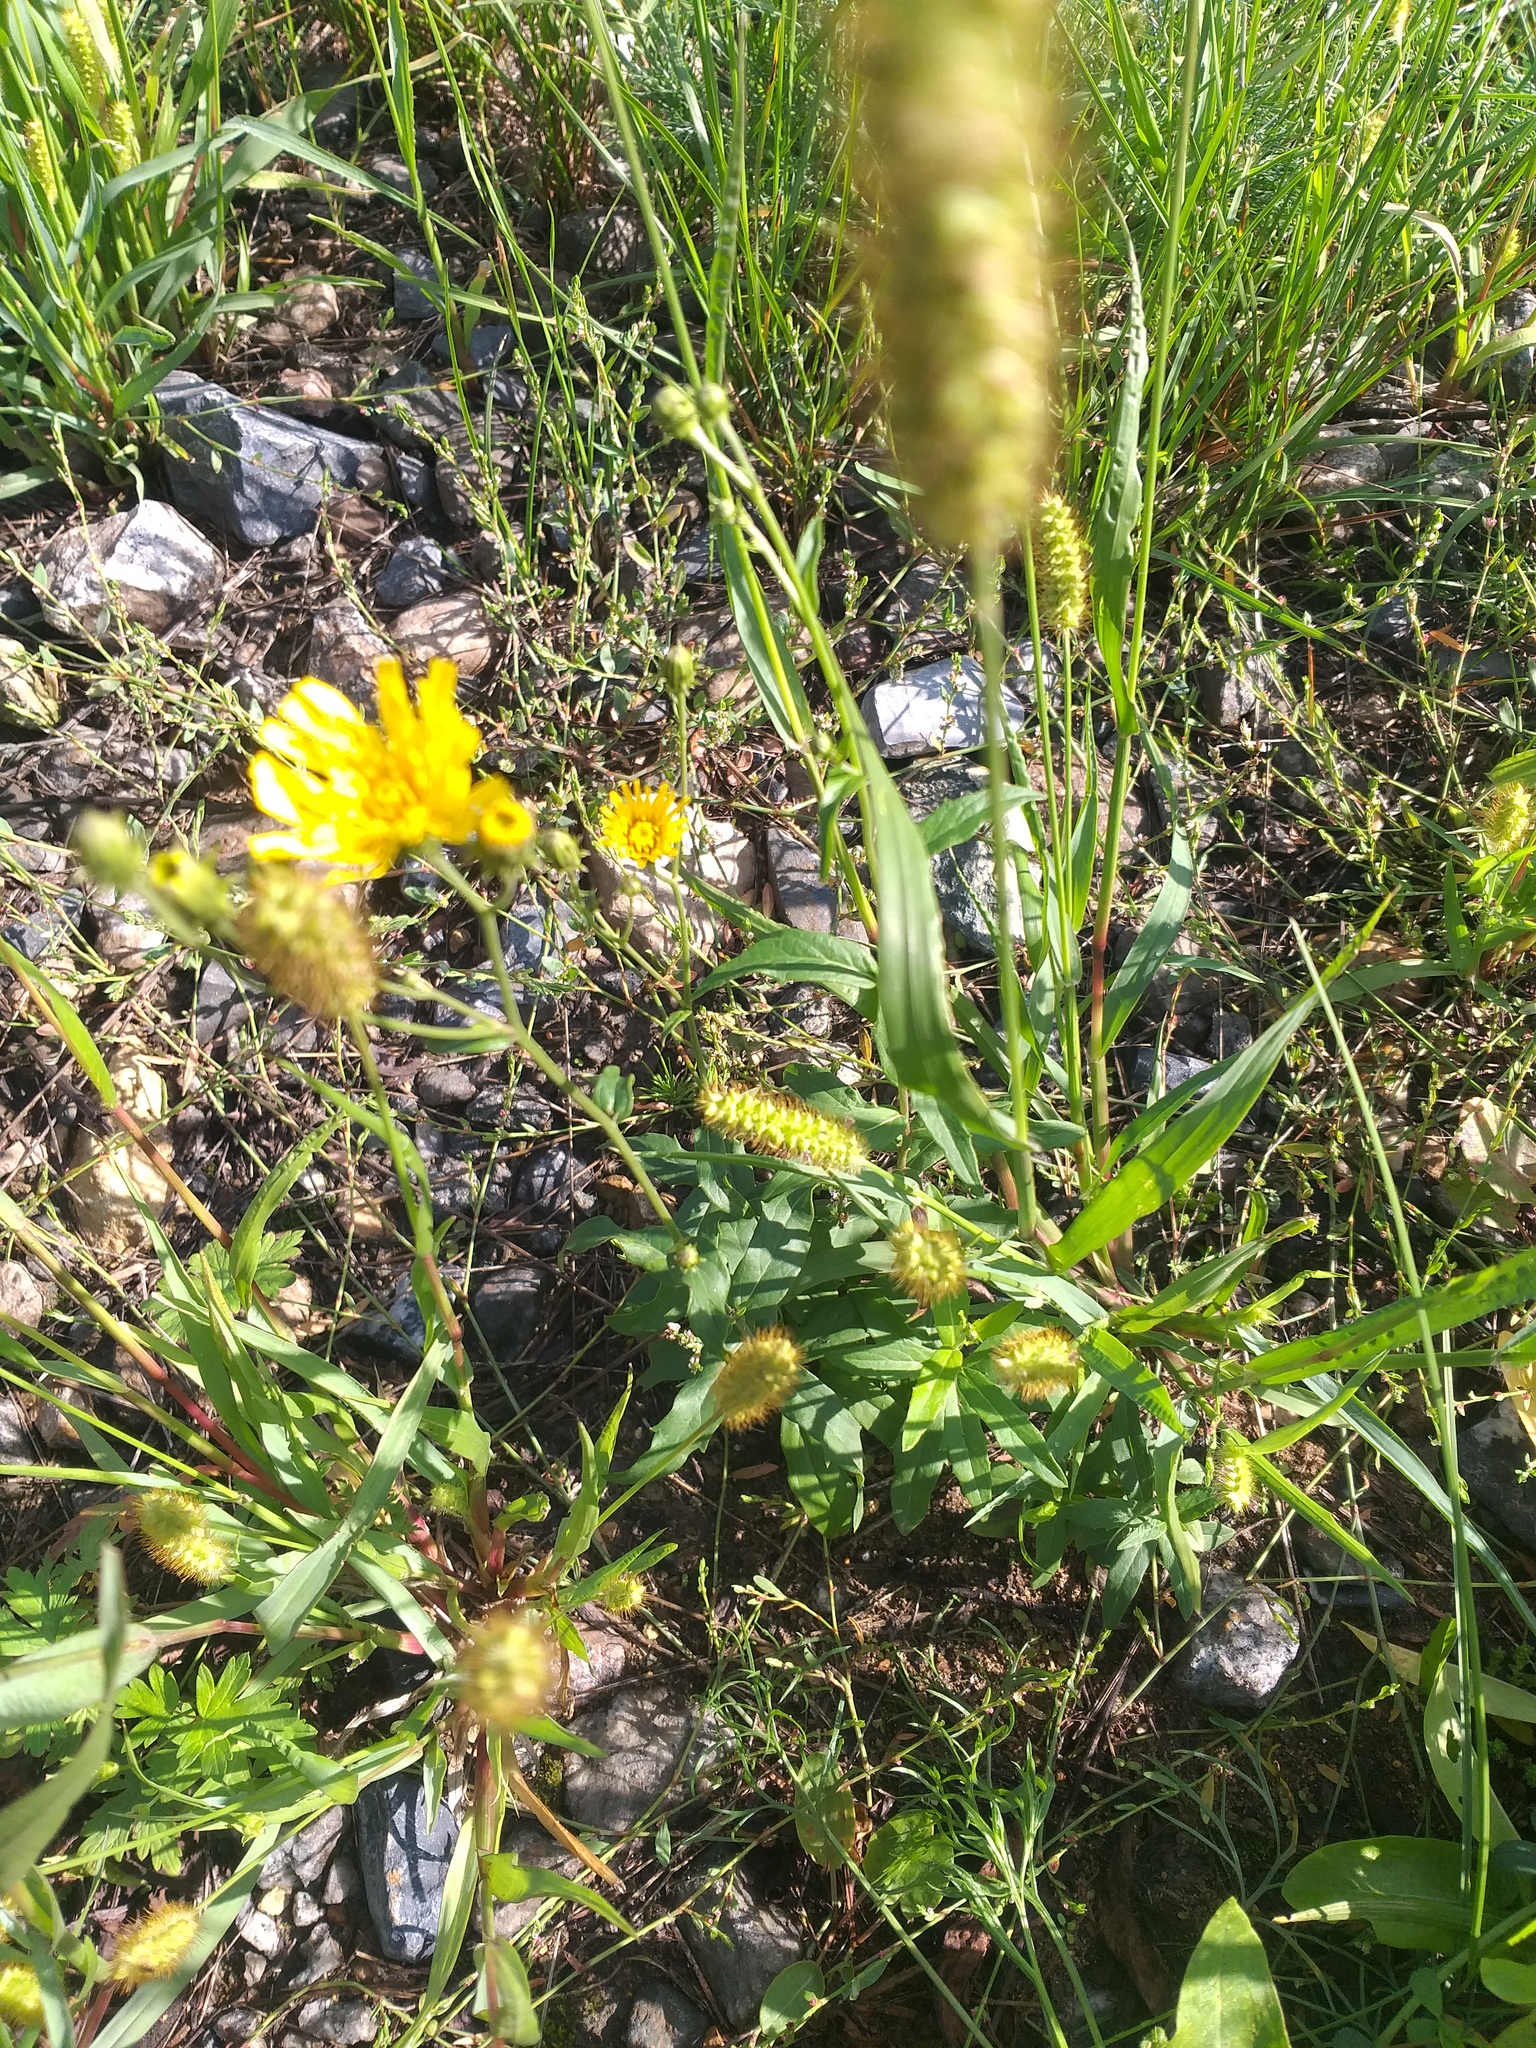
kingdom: Plantae
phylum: Tracheophyta
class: Magnoliopsida
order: Asterales
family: Asteraceae
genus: Hieracium
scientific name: Hieracium umbellatum
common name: Northern hawkweed
